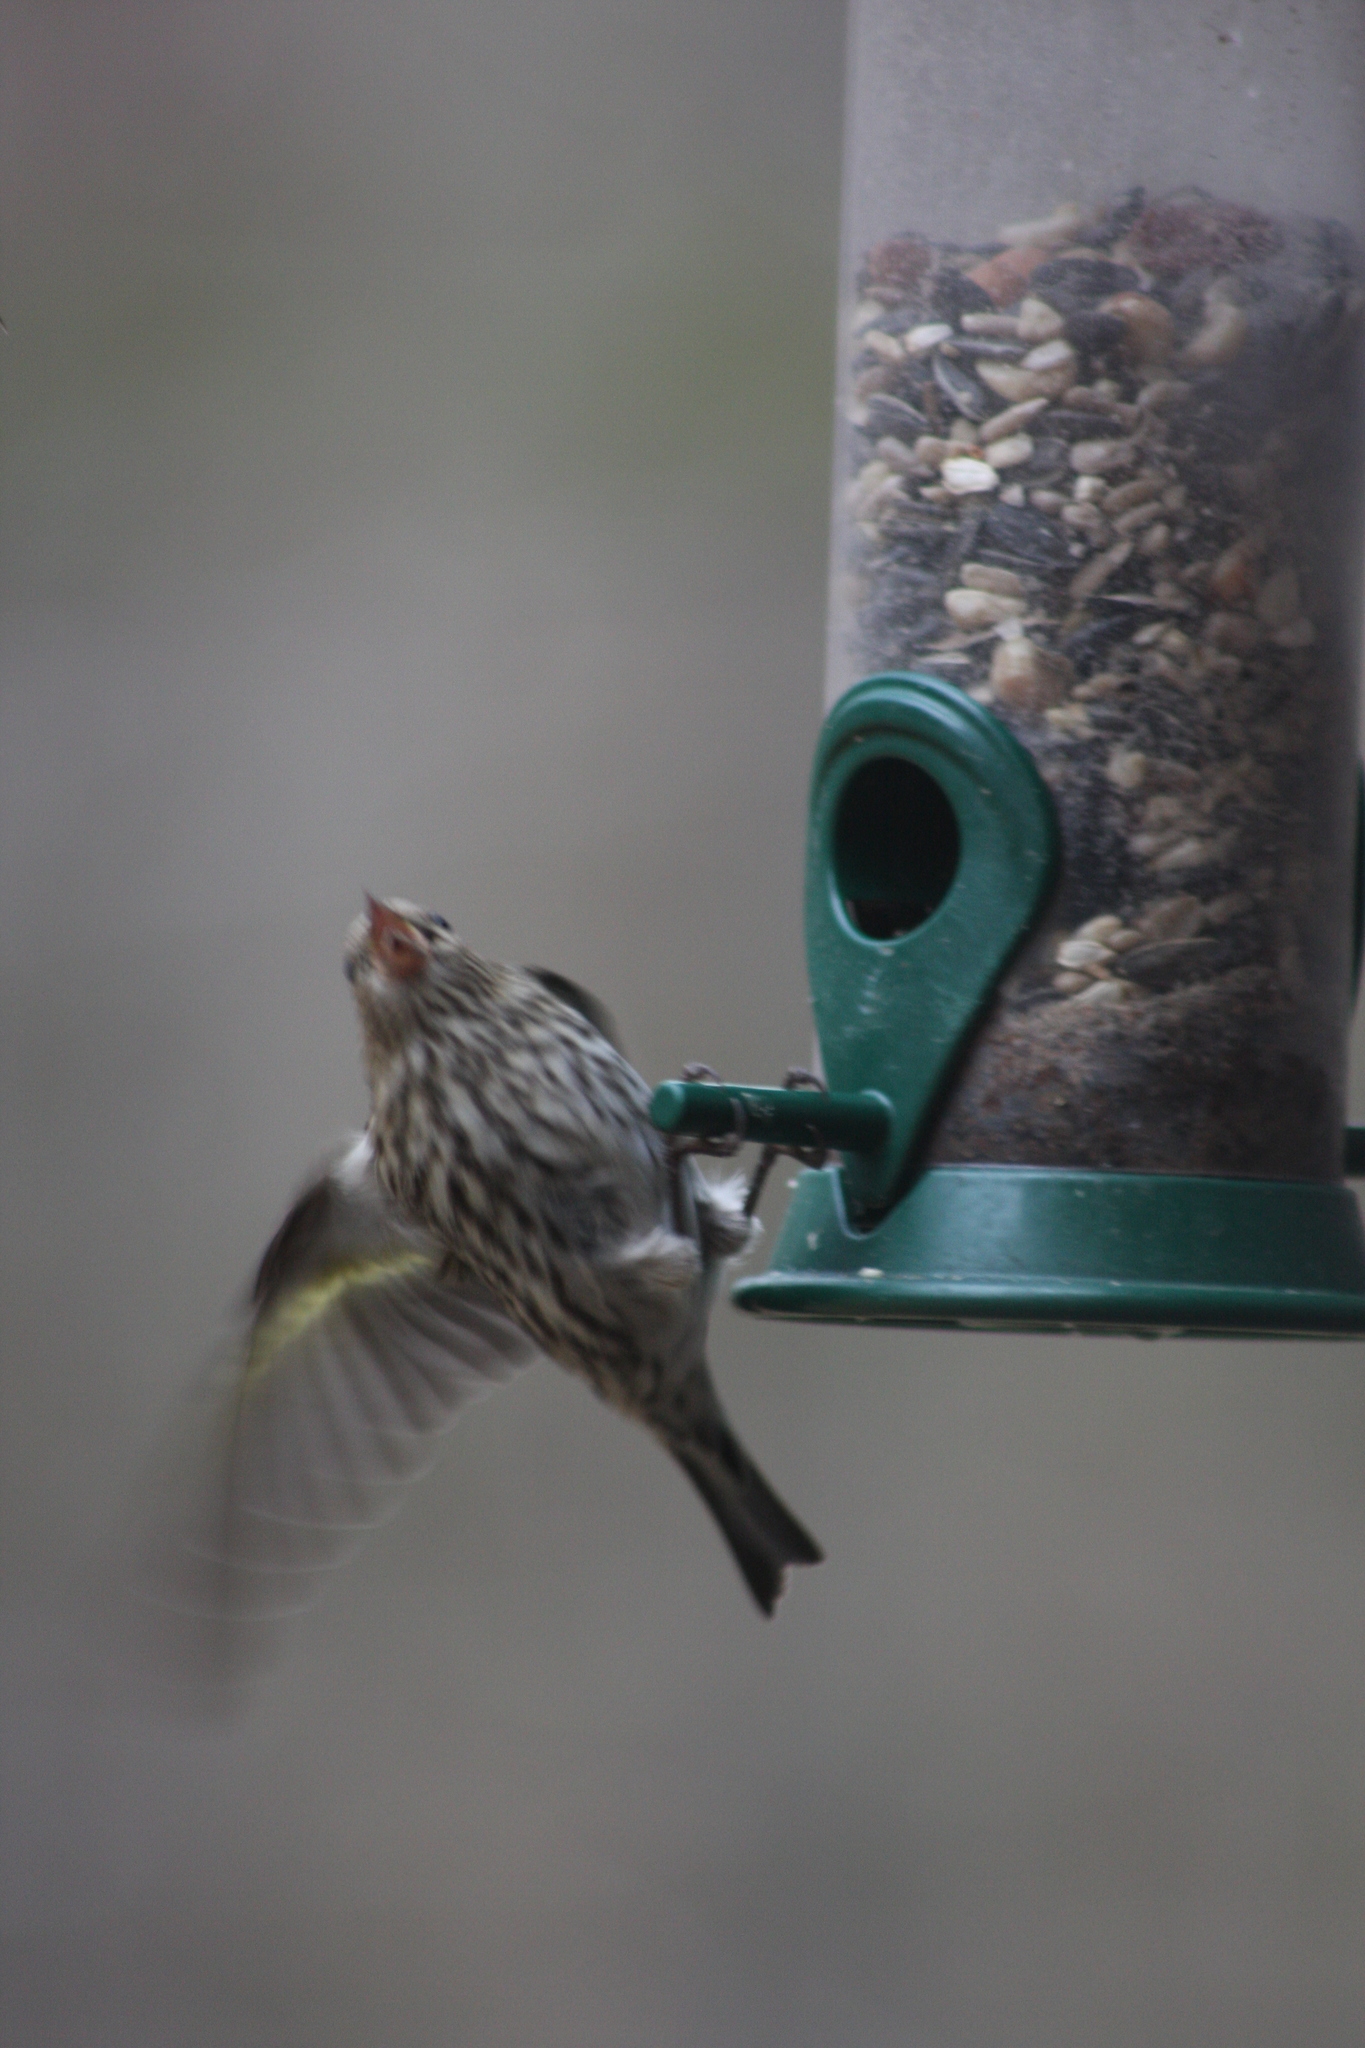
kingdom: Animalia
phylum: Chordata
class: Aves
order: Passeriformes
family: Fringillidae
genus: Spinus
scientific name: Spinus pinus
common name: Pine siskin
